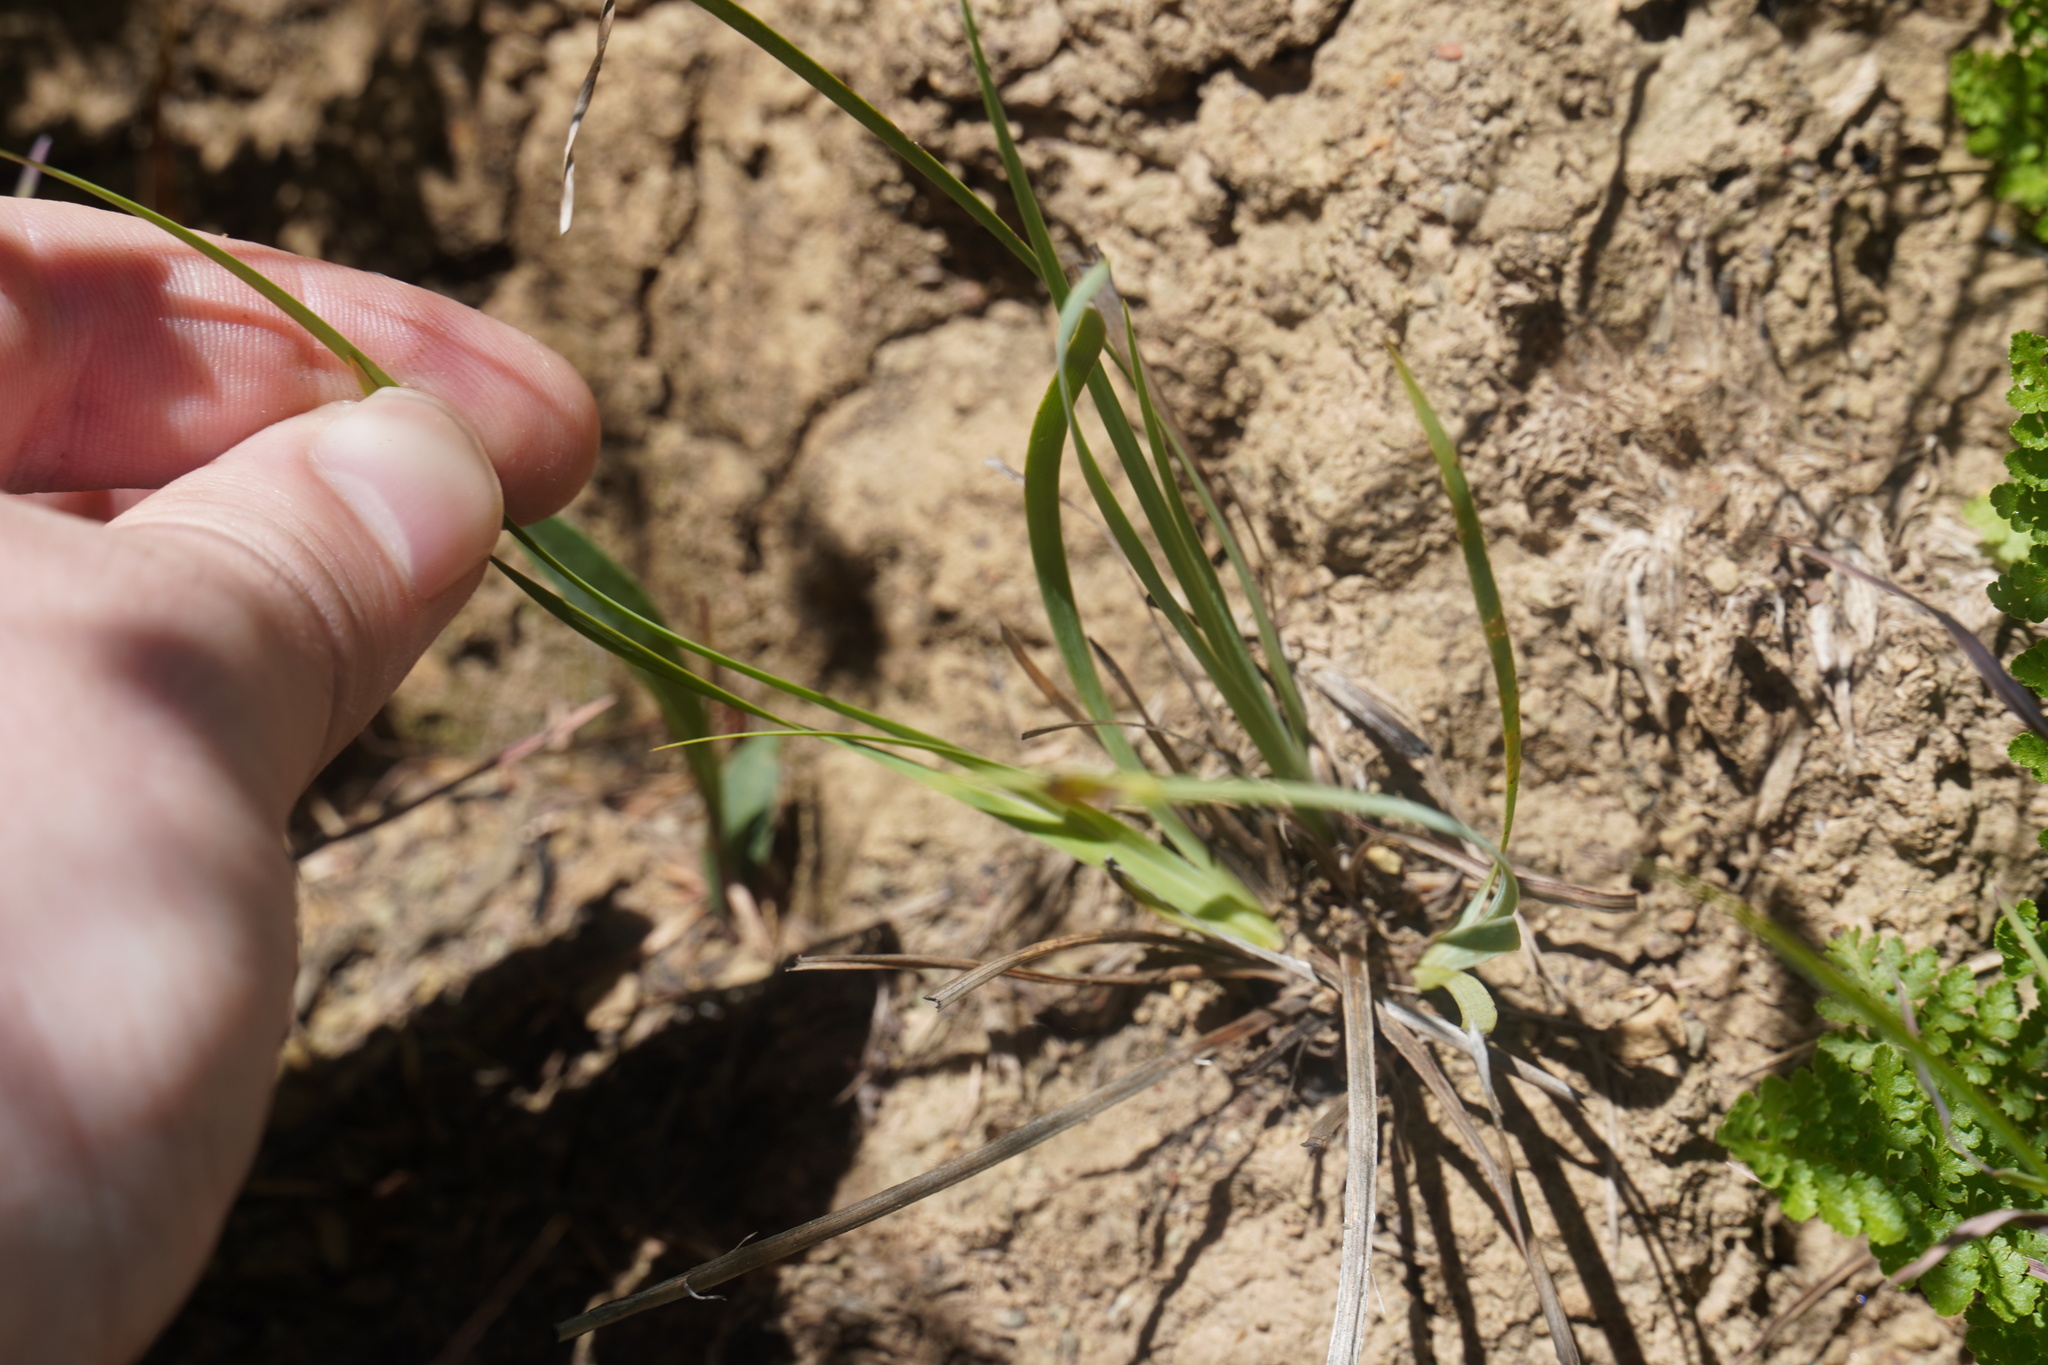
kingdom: Plantae
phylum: Tracheophyta
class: Liliopsida
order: Asparagales
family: Iridaceae
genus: Aristea
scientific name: Aristea abyssinica
